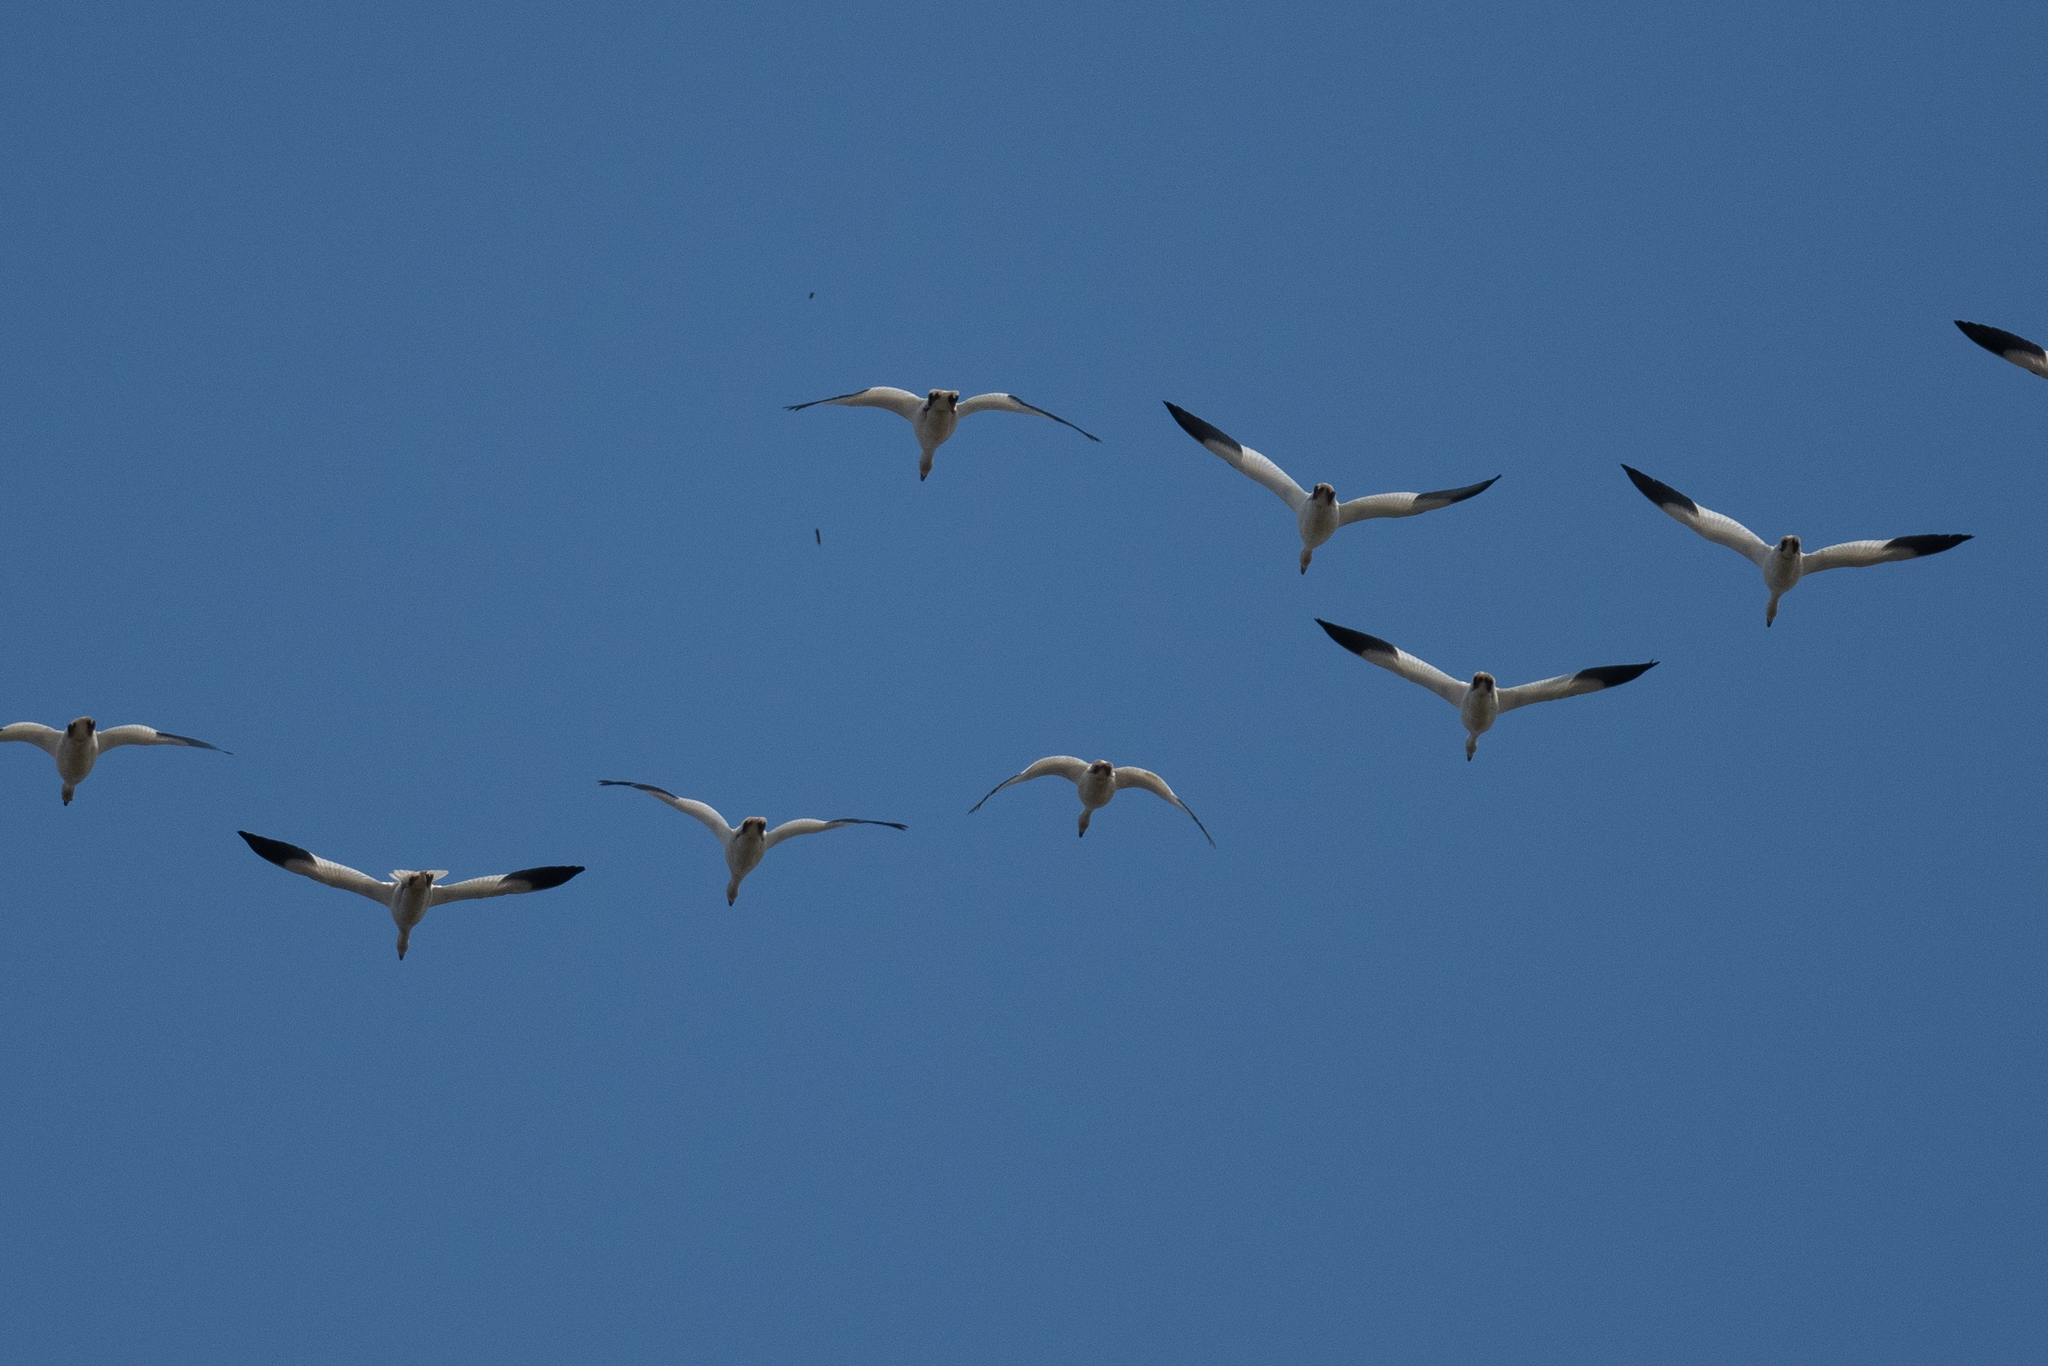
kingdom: Animalia
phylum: Chordata
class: Aves
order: Anseriformes
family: Anatidae
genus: Anser
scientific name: Anser caerulescens
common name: Snow goose
